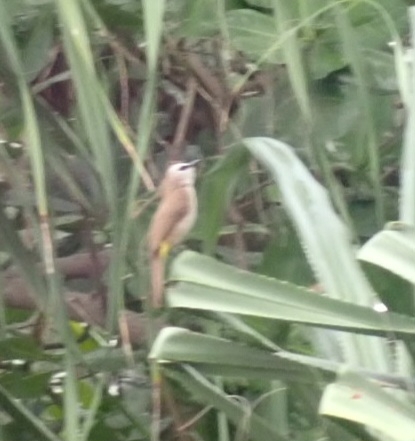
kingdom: Animalia
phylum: Chordata
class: Aves
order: Passeriformes
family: Pycnonotidae
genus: Pycnonotus
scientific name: Pycnonotus goiavier
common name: Yellow-vented bulbul
